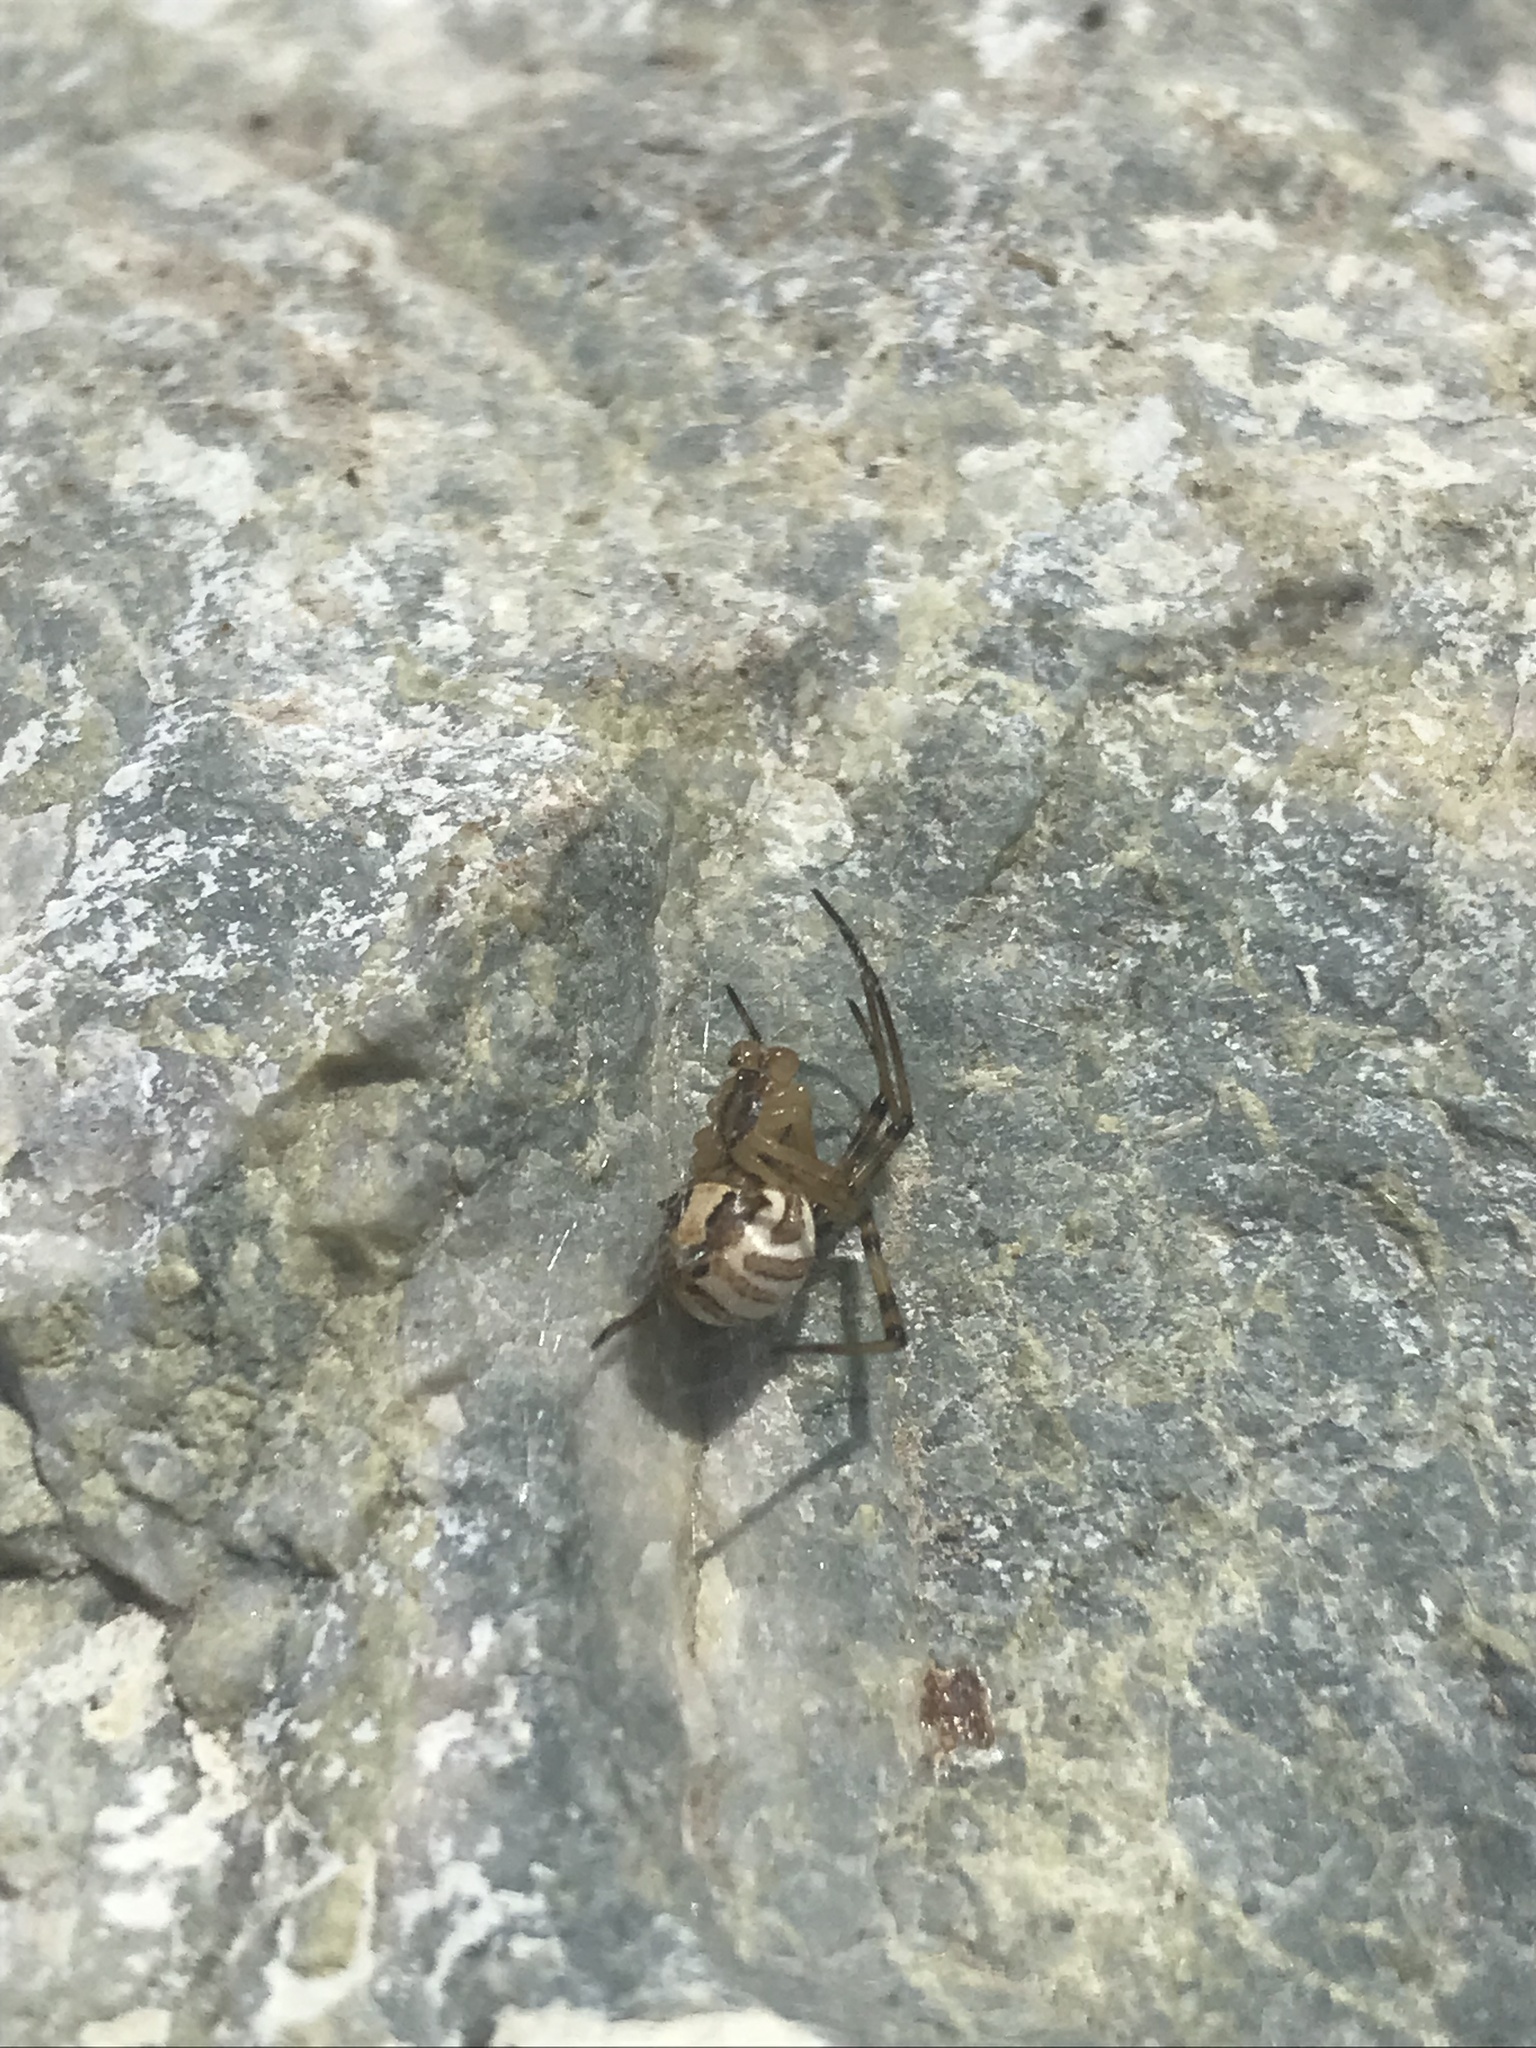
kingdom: Animalia
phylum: Arthropoda
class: Arachnida
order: Araneae
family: Theridiidae
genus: Latrodectus
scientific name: Latrodectus hesperus
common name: Western black widow
